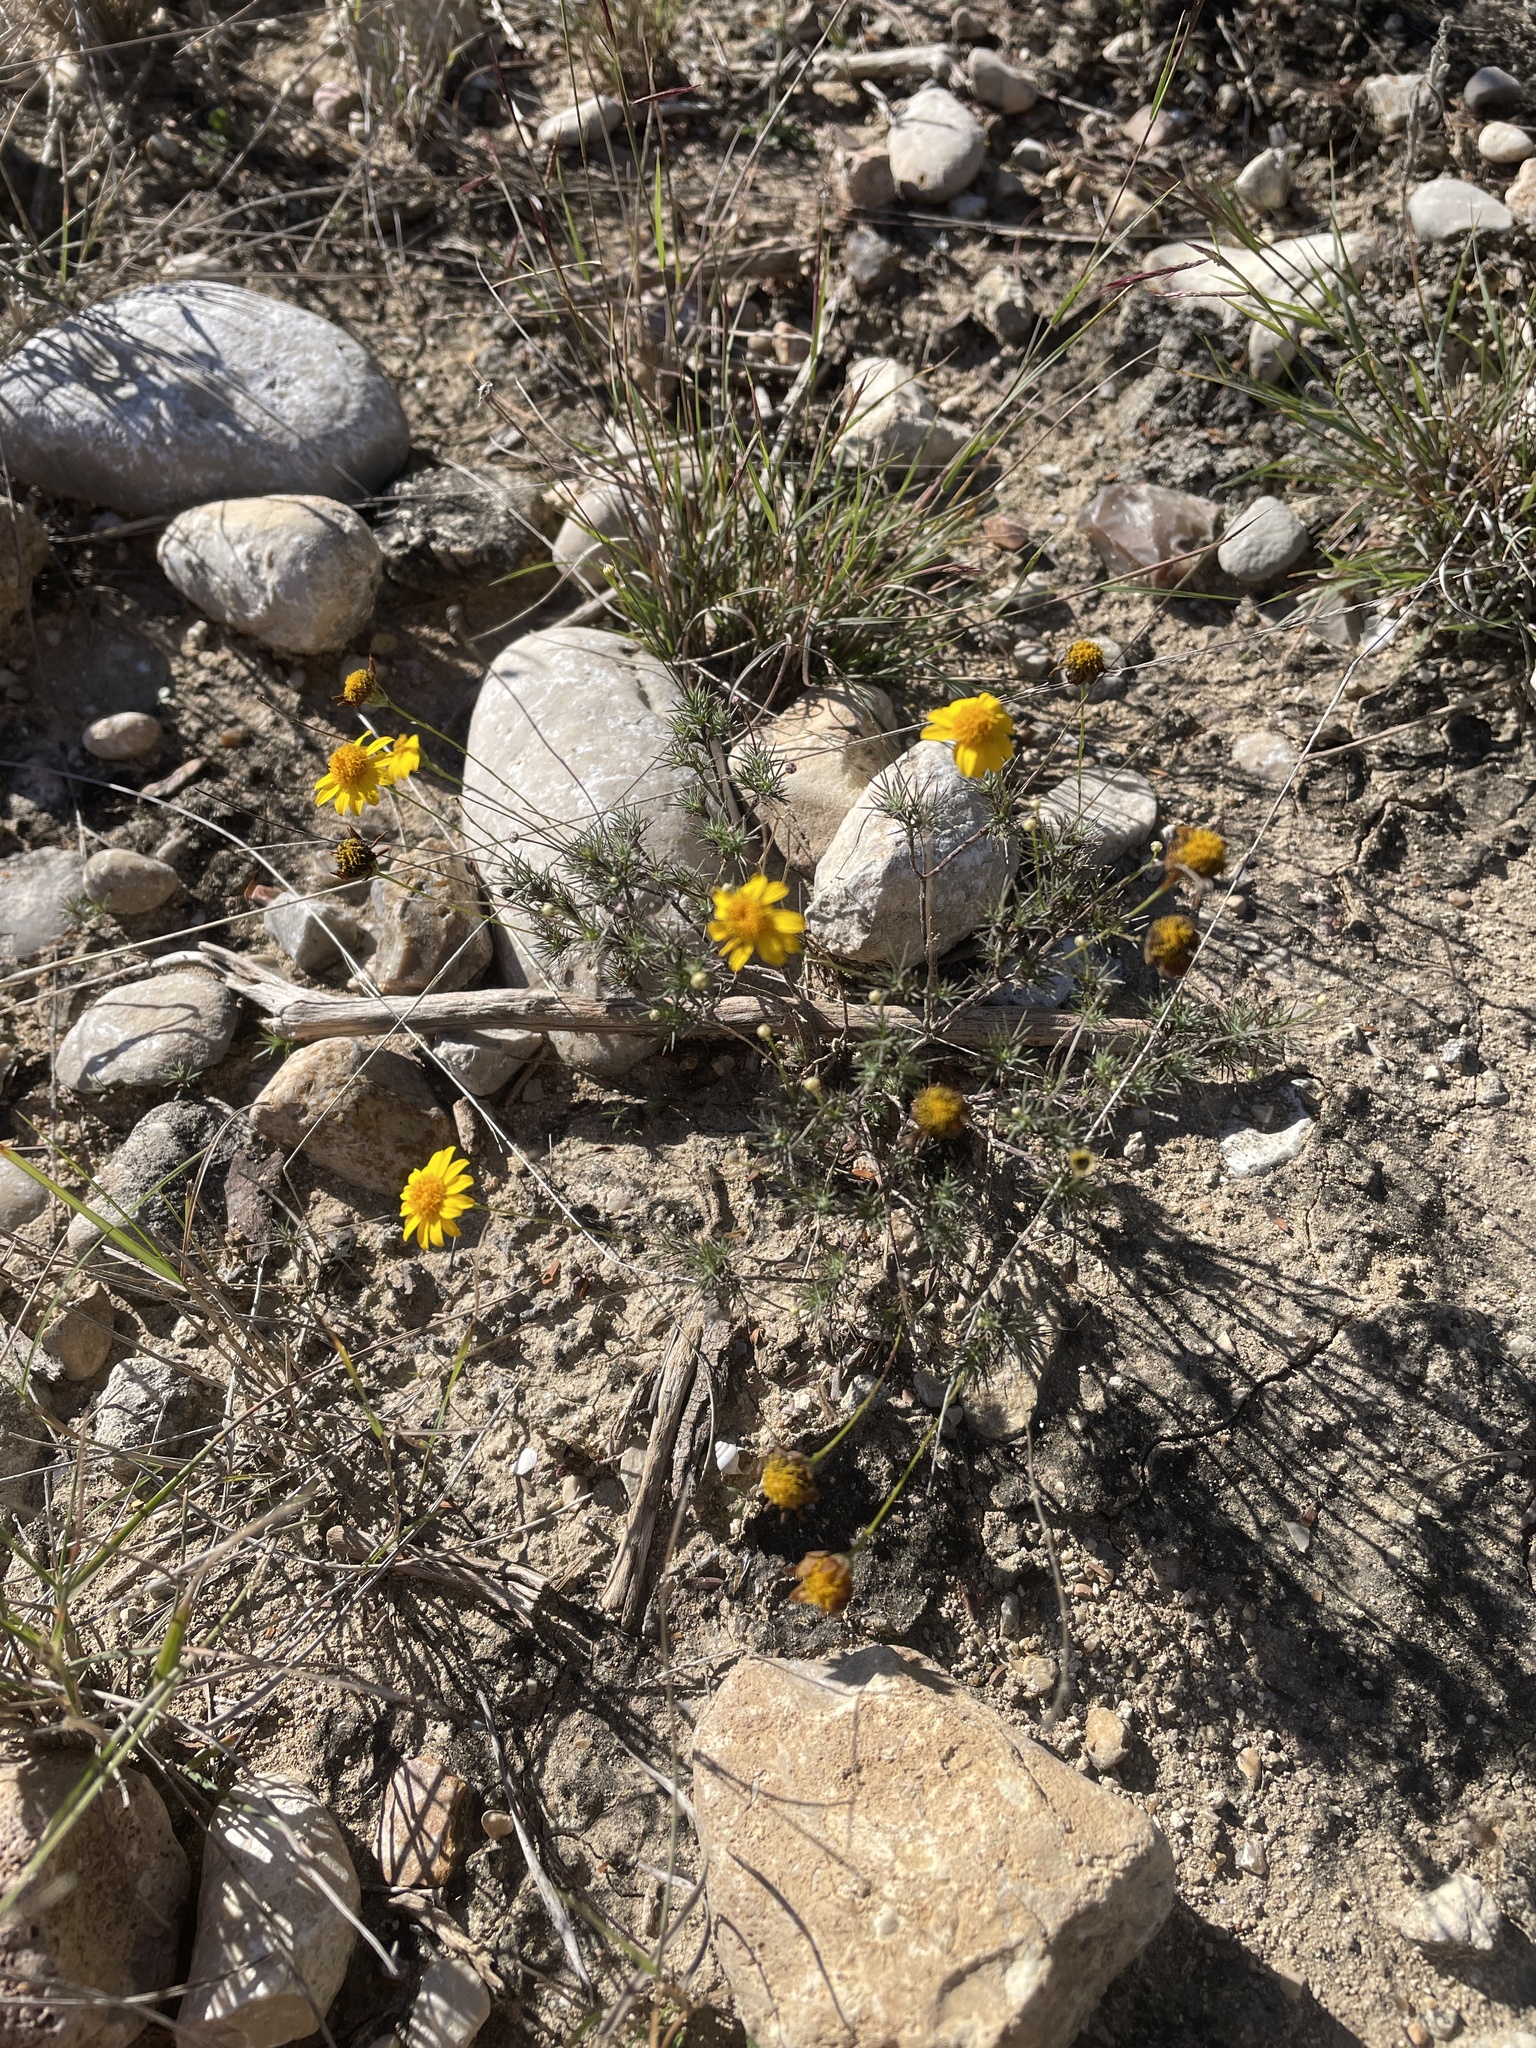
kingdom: Plantae
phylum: Tracheophyta
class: Magnoliopsida
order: Asterales
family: Asteraceae
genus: Thymophylla
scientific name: Thymophylla pentachaeta
